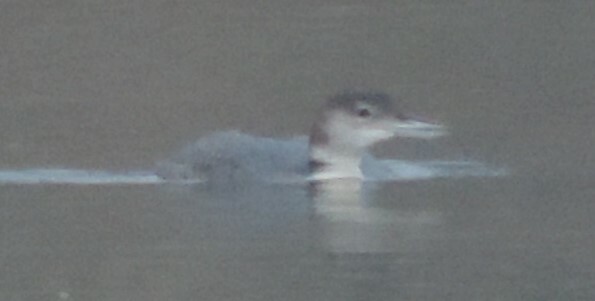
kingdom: Animalia
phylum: Chordata
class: Aves
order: Gaviiformes
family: Gaviidae
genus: Gavia
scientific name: Gavia immer
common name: Common loon
